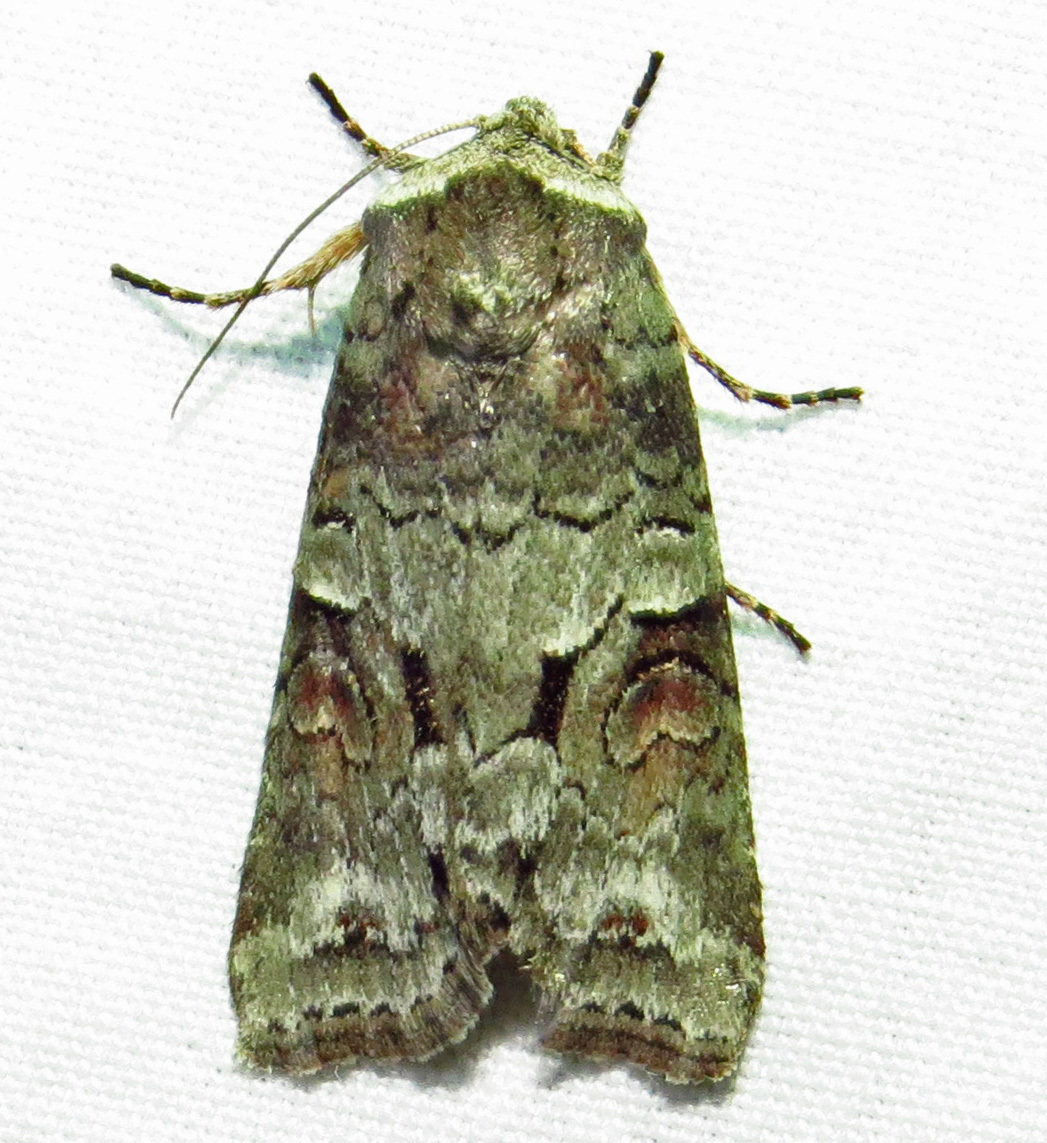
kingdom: Animalia
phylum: Arthropoda
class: Insecta
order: Lepidoptera
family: Noctuidae
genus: Egira
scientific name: Egira alternans
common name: Alternate woodling
